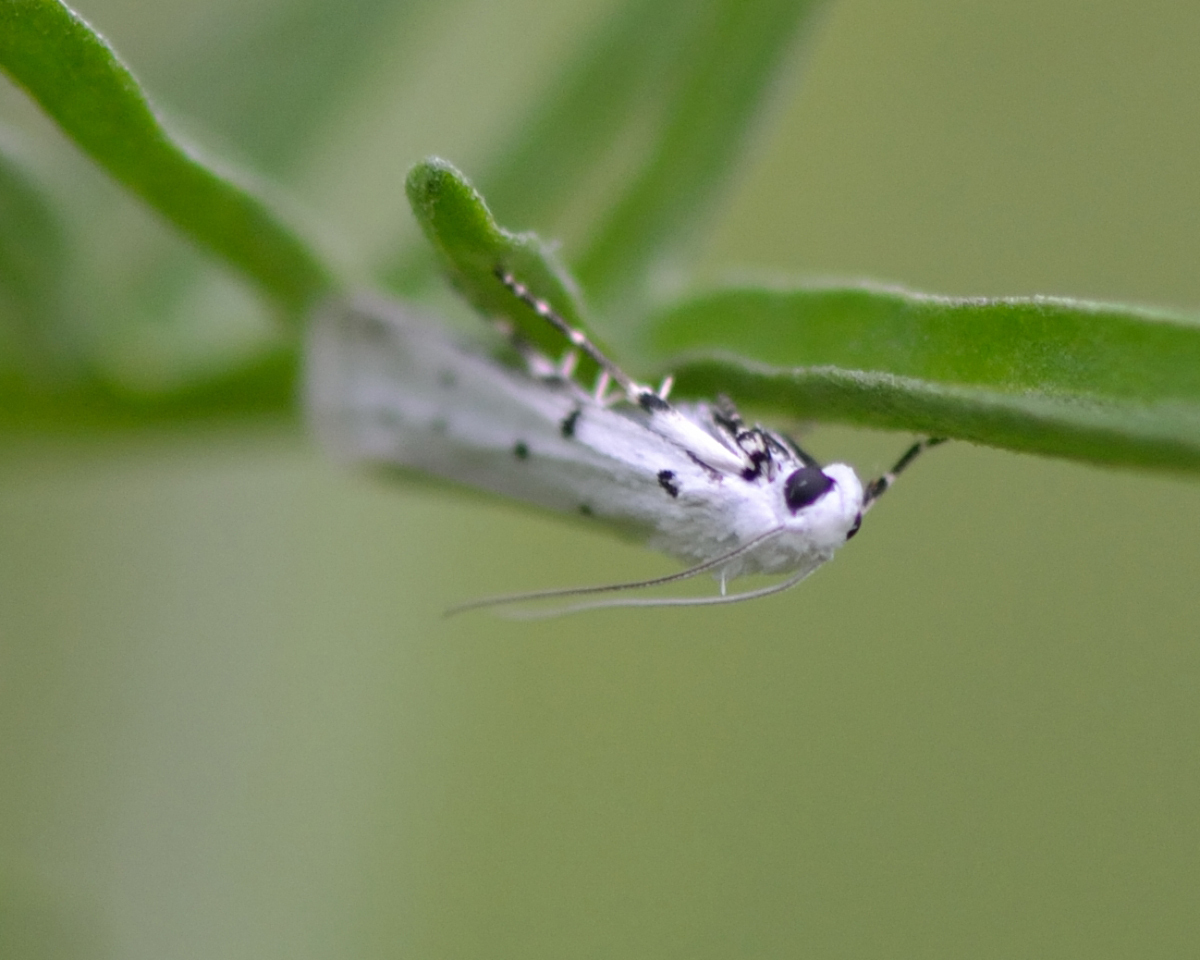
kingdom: Animalia
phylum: Arthropoda
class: Insecta
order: Lepidoptera
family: Pyralidae
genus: Myelois
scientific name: Myelois circumvoluta
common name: Thistle ermine
